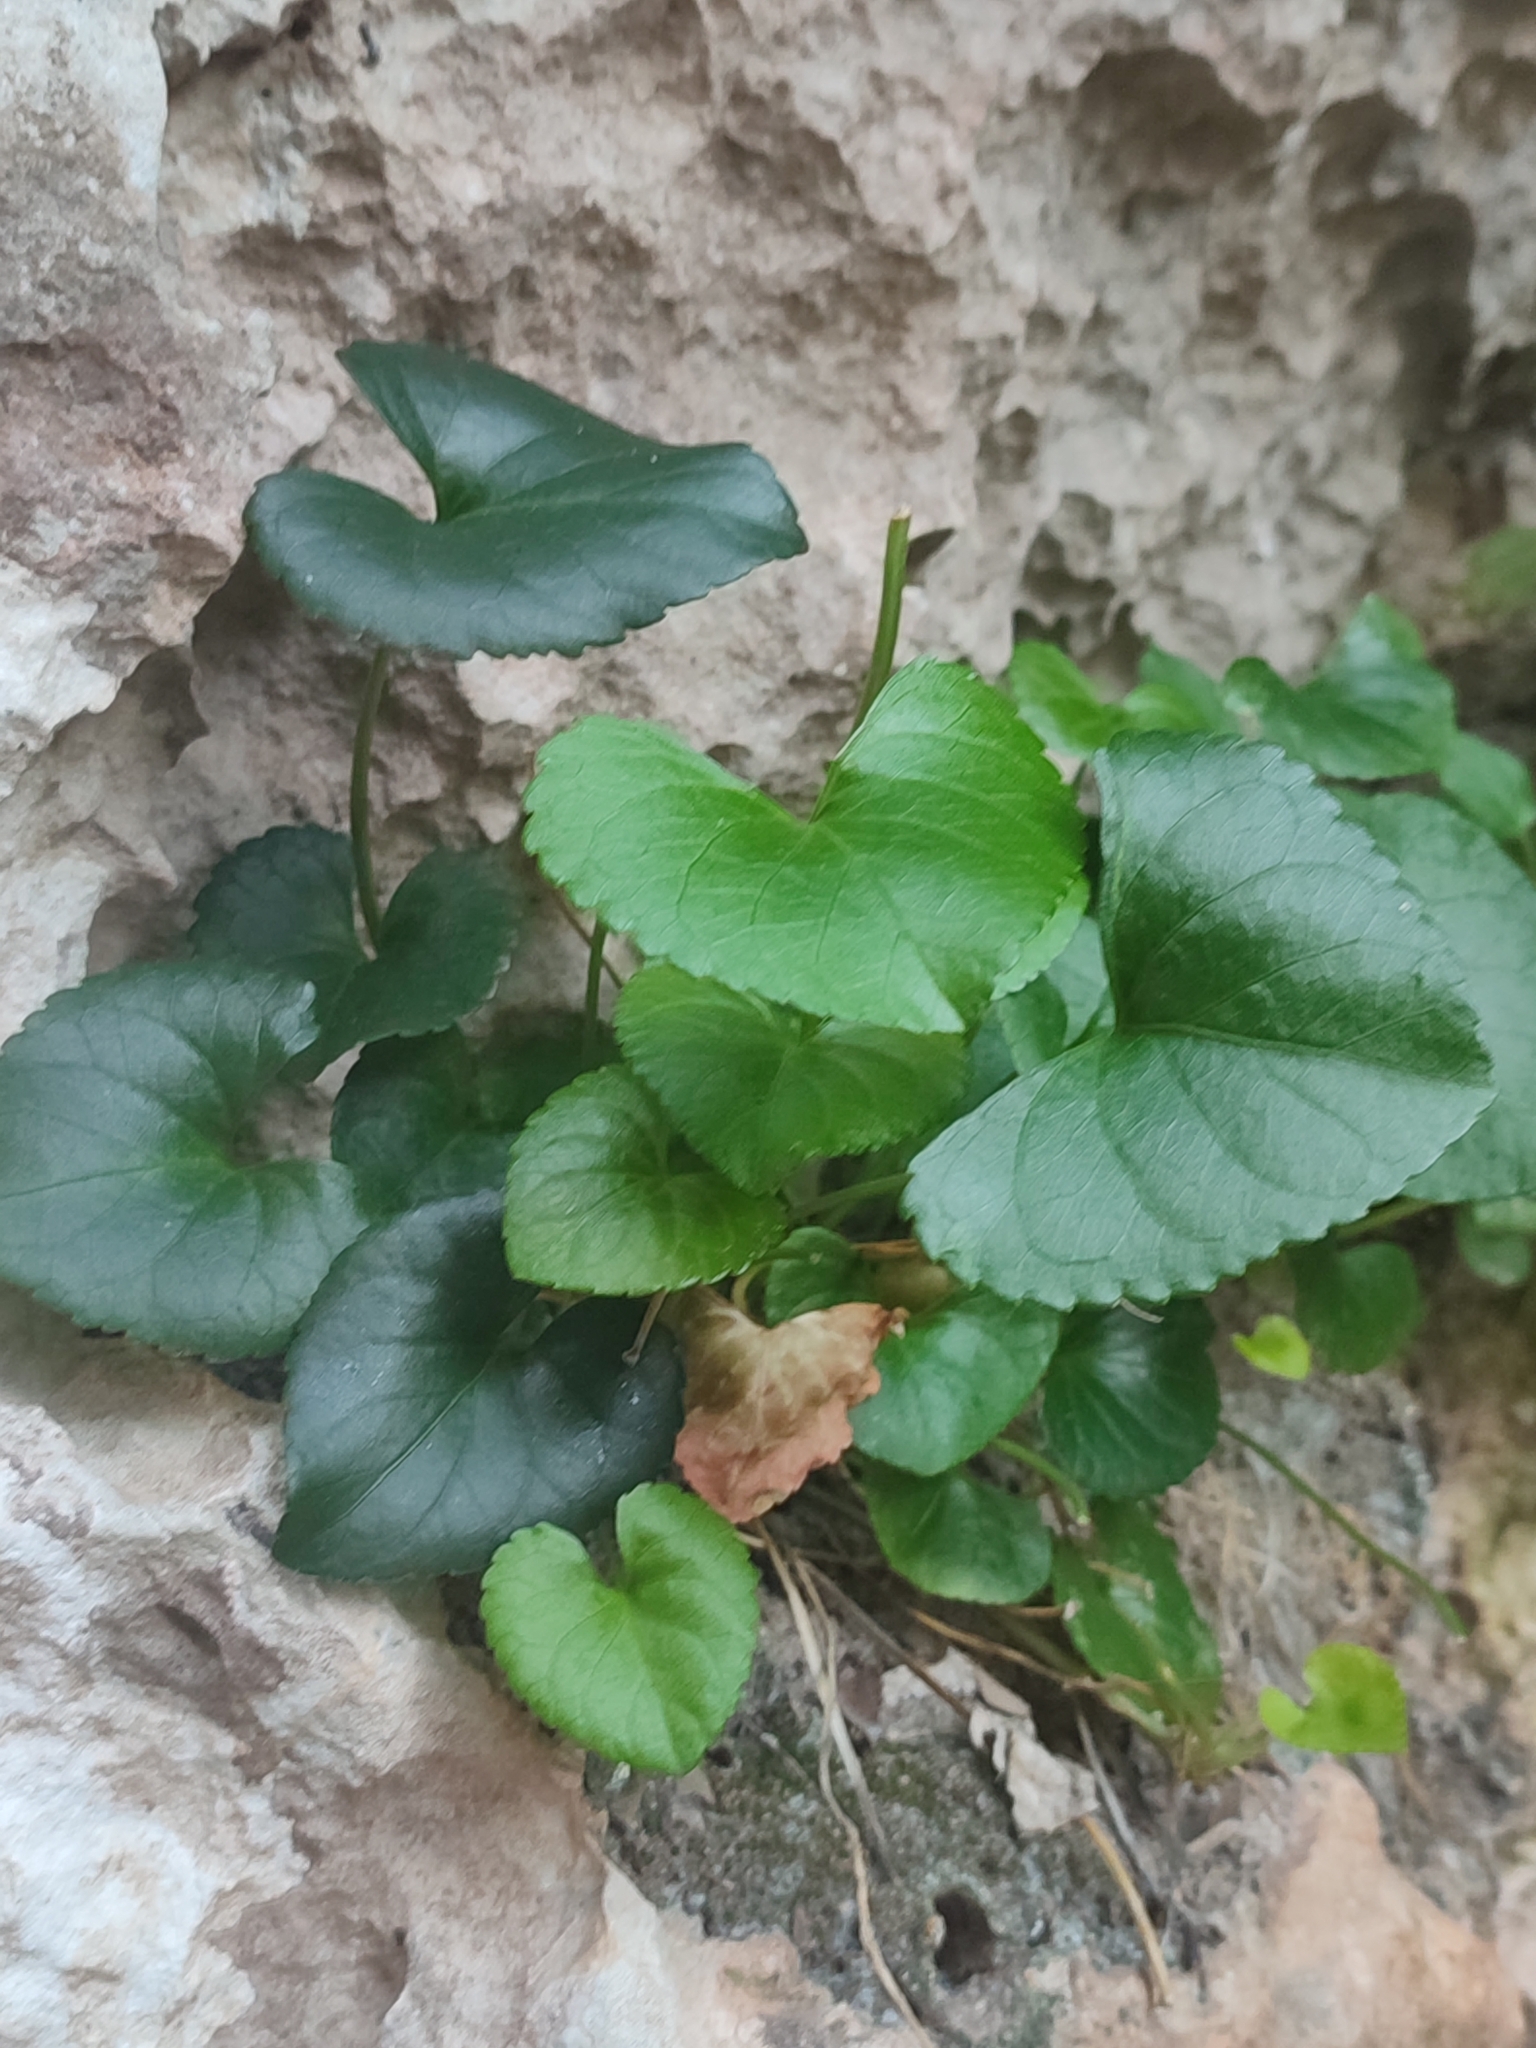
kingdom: Plantae
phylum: Tracheophyta
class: Magnoliopsida
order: Malpighiales
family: Violaceae
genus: Viola
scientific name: Viola jaubertiana
